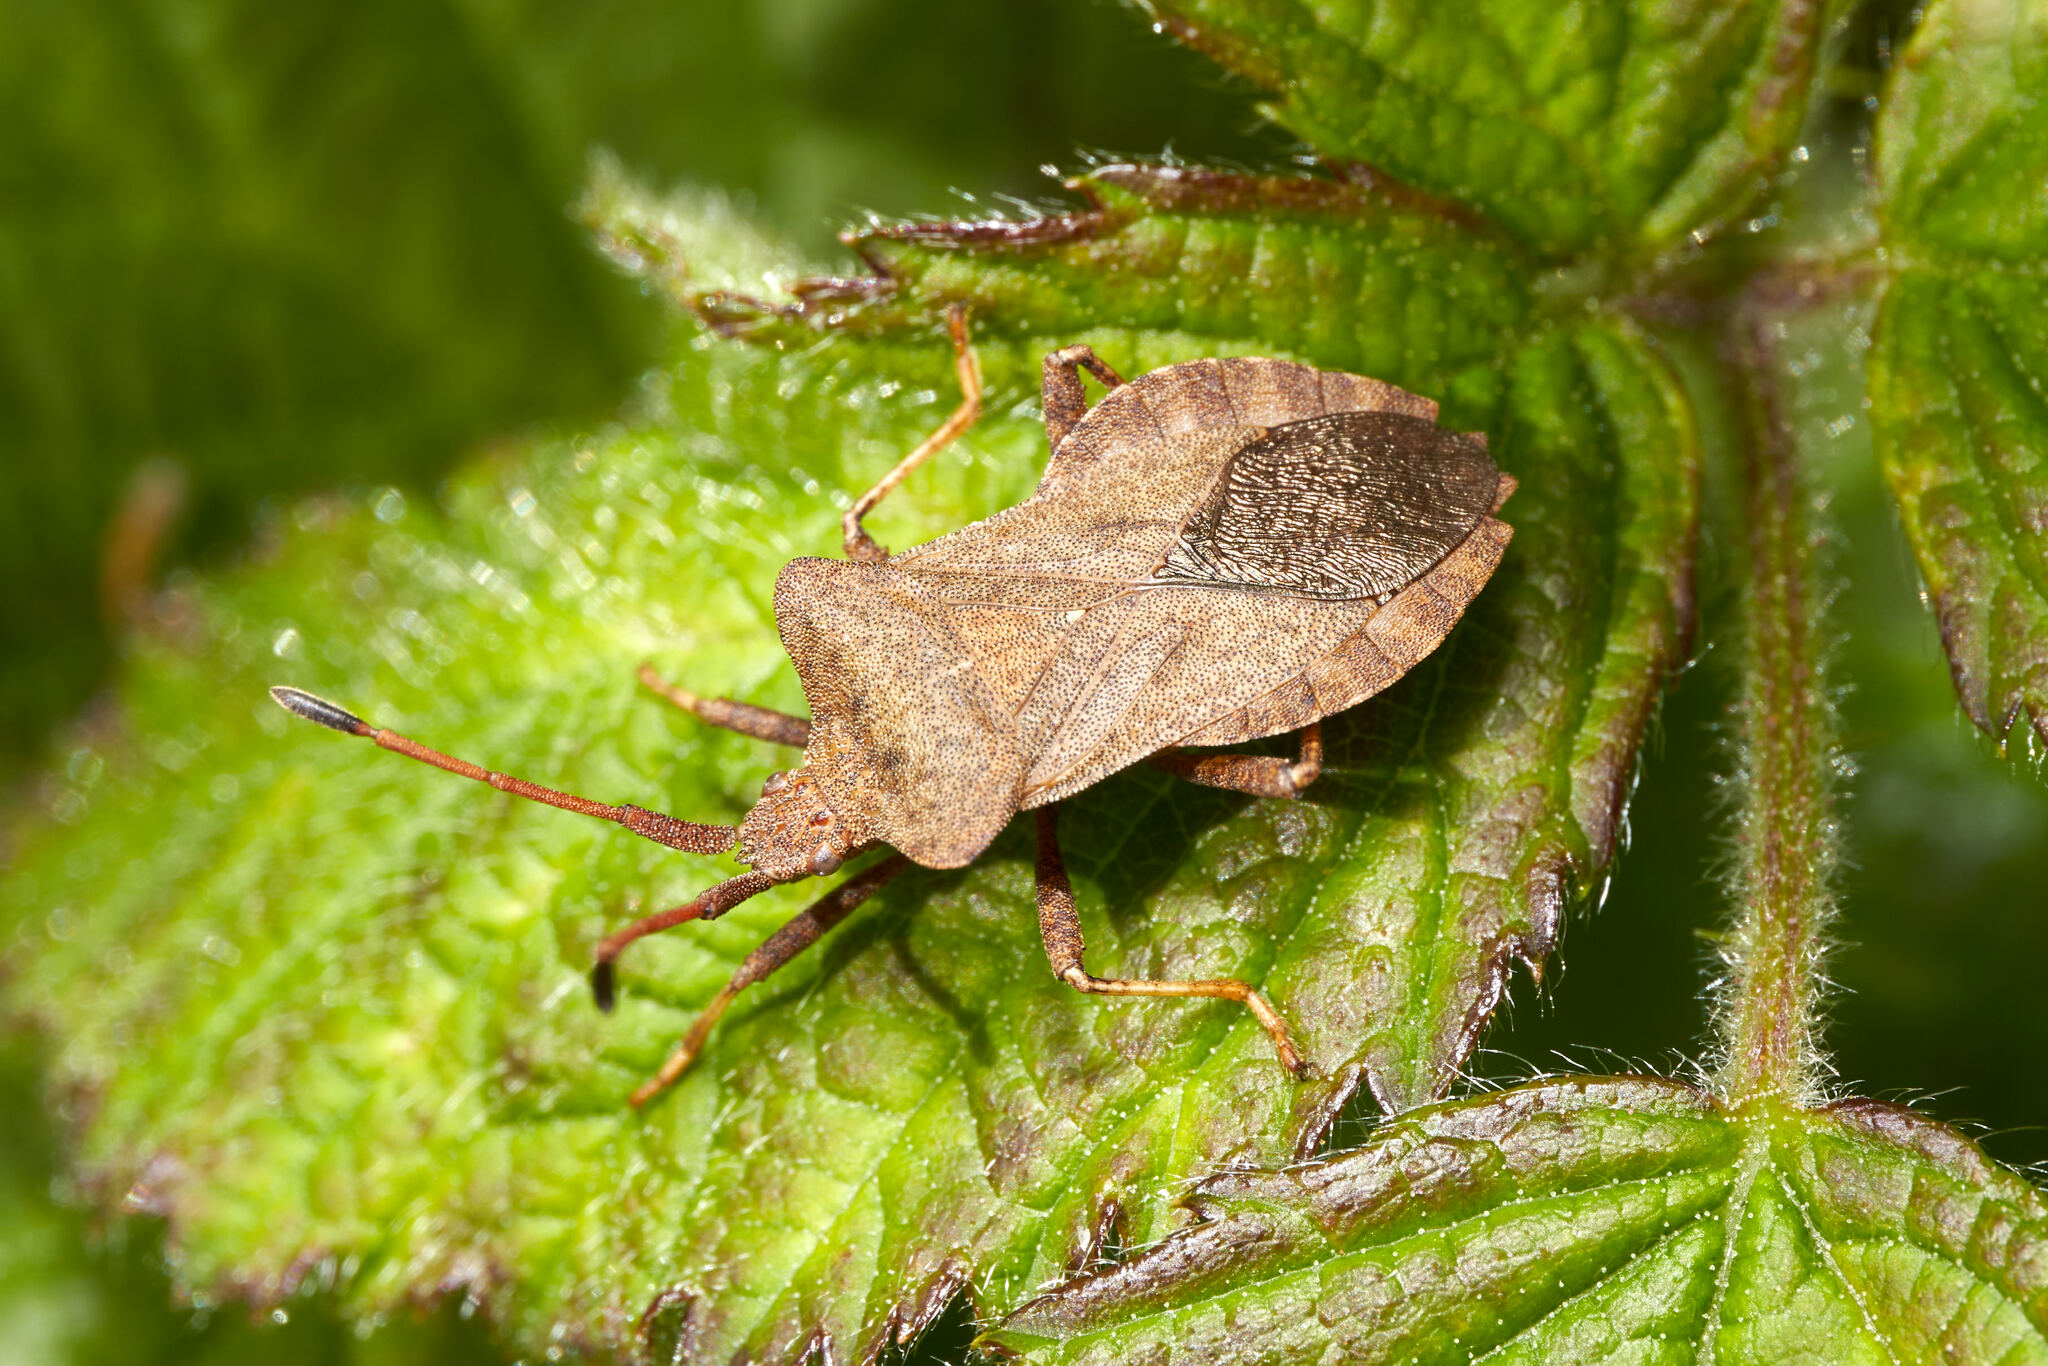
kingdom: Animalia
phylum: Arthropoda
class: Insecta
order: Hemiptera
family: Coreidae
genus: Coreus
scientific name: Coreus marginatus
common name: Dock bug
